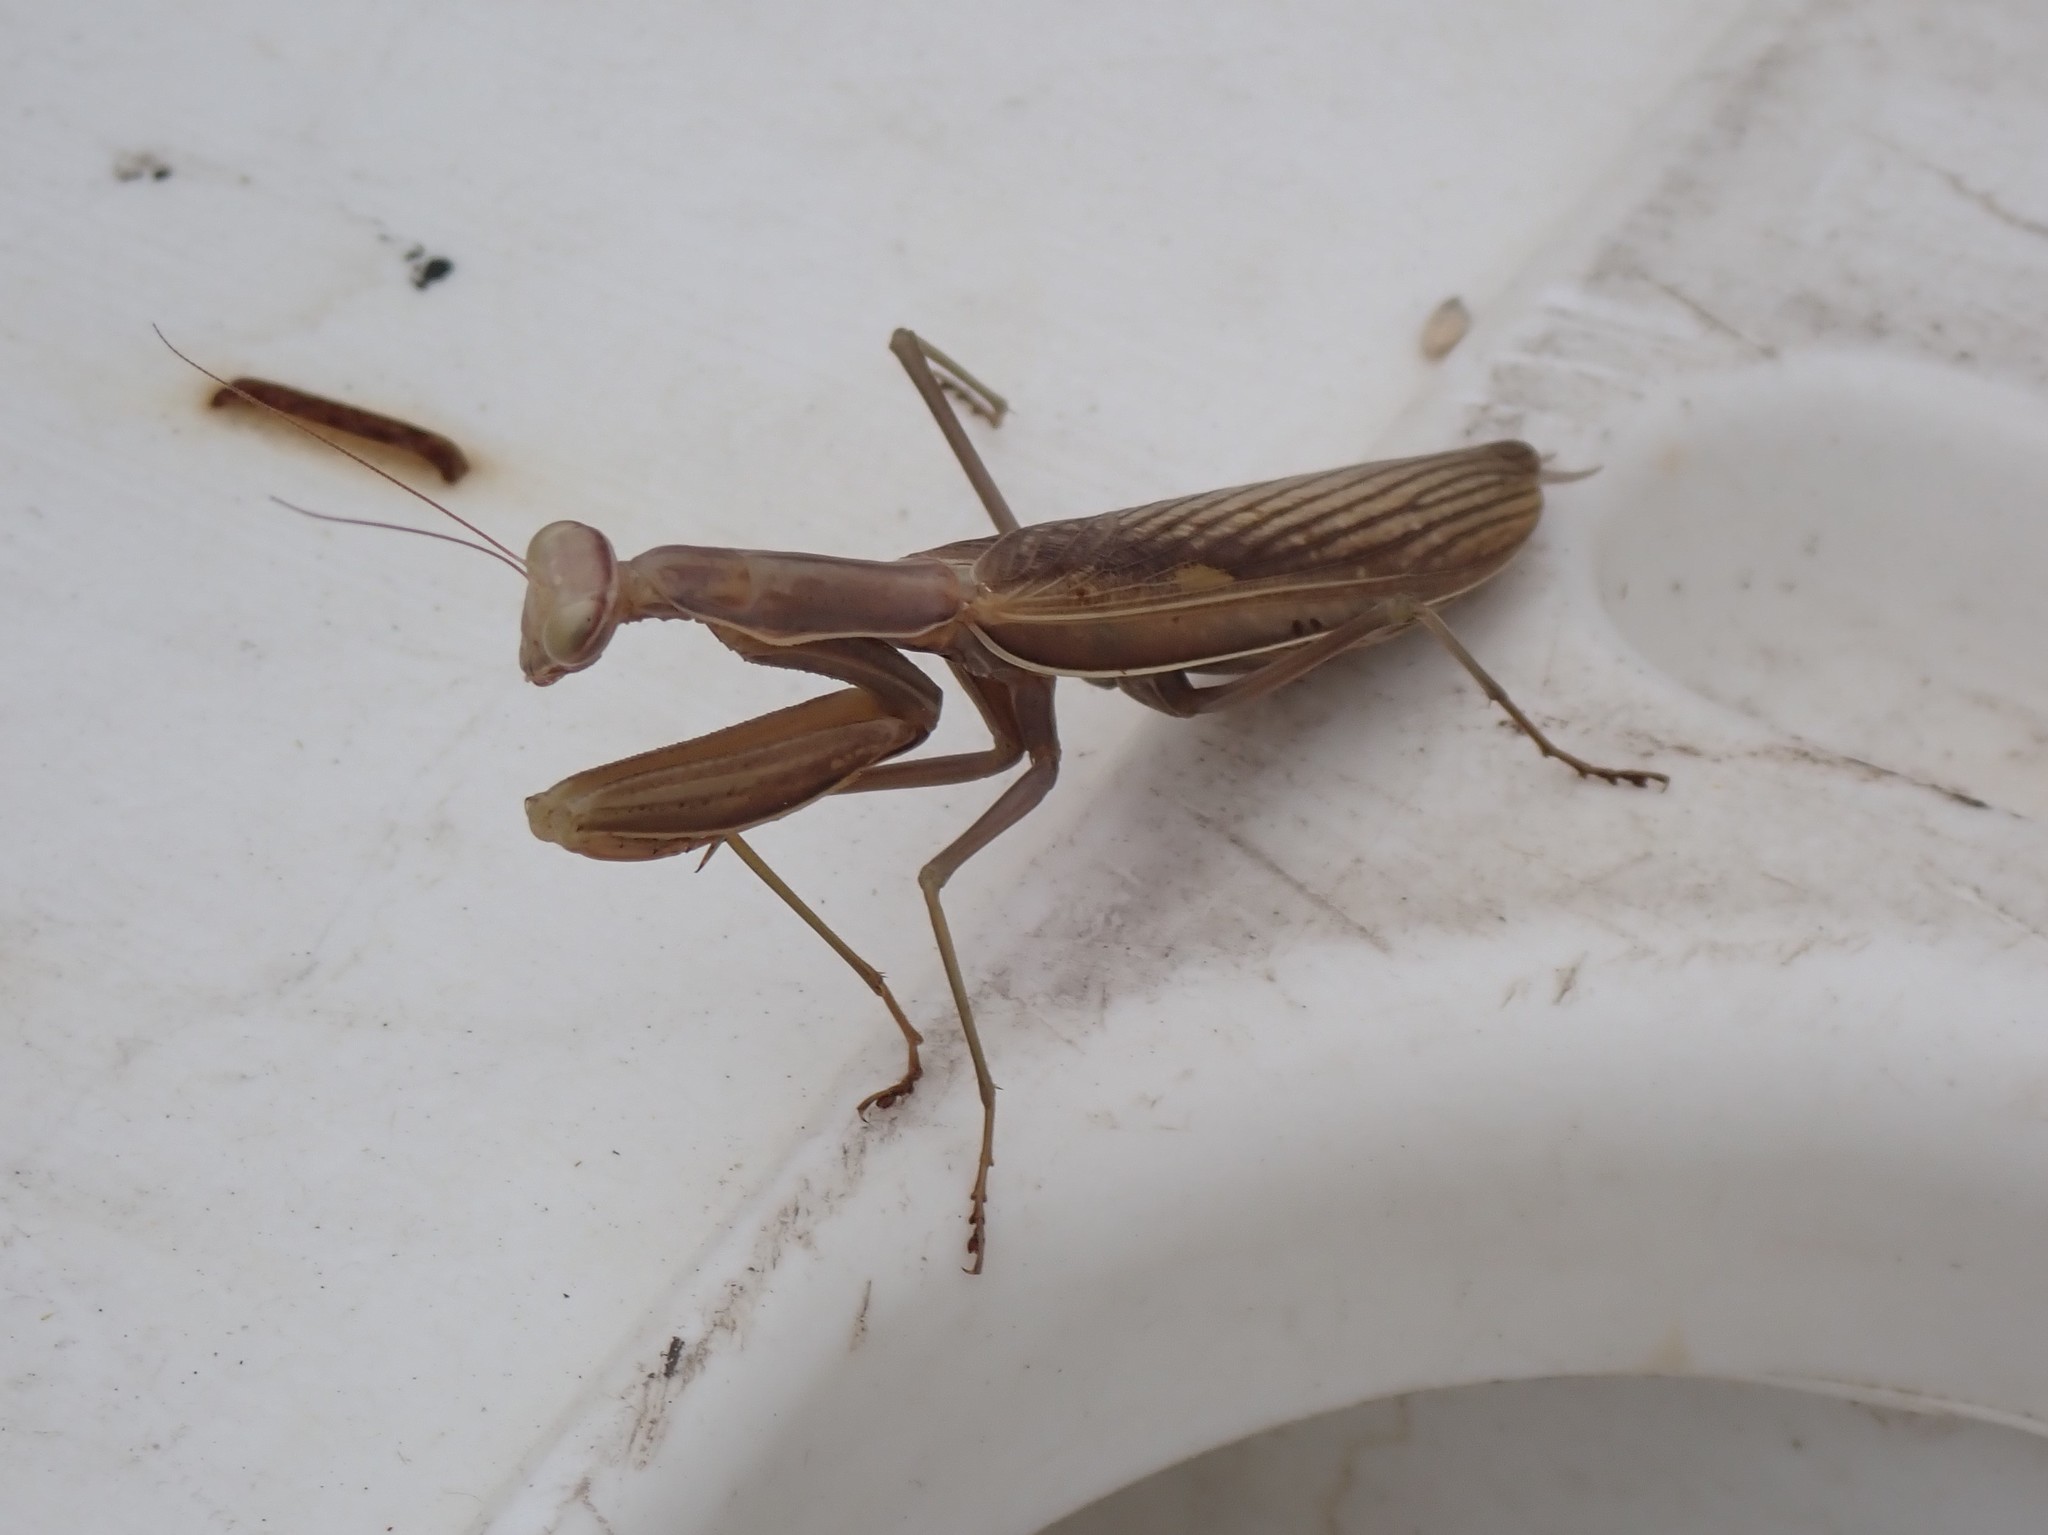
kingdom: Animalia
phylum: Arthropoda
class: Insecta
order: Mantodea
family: Mantidae
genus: Mantis
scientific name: Mantis religiosa
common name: Praying mantis
